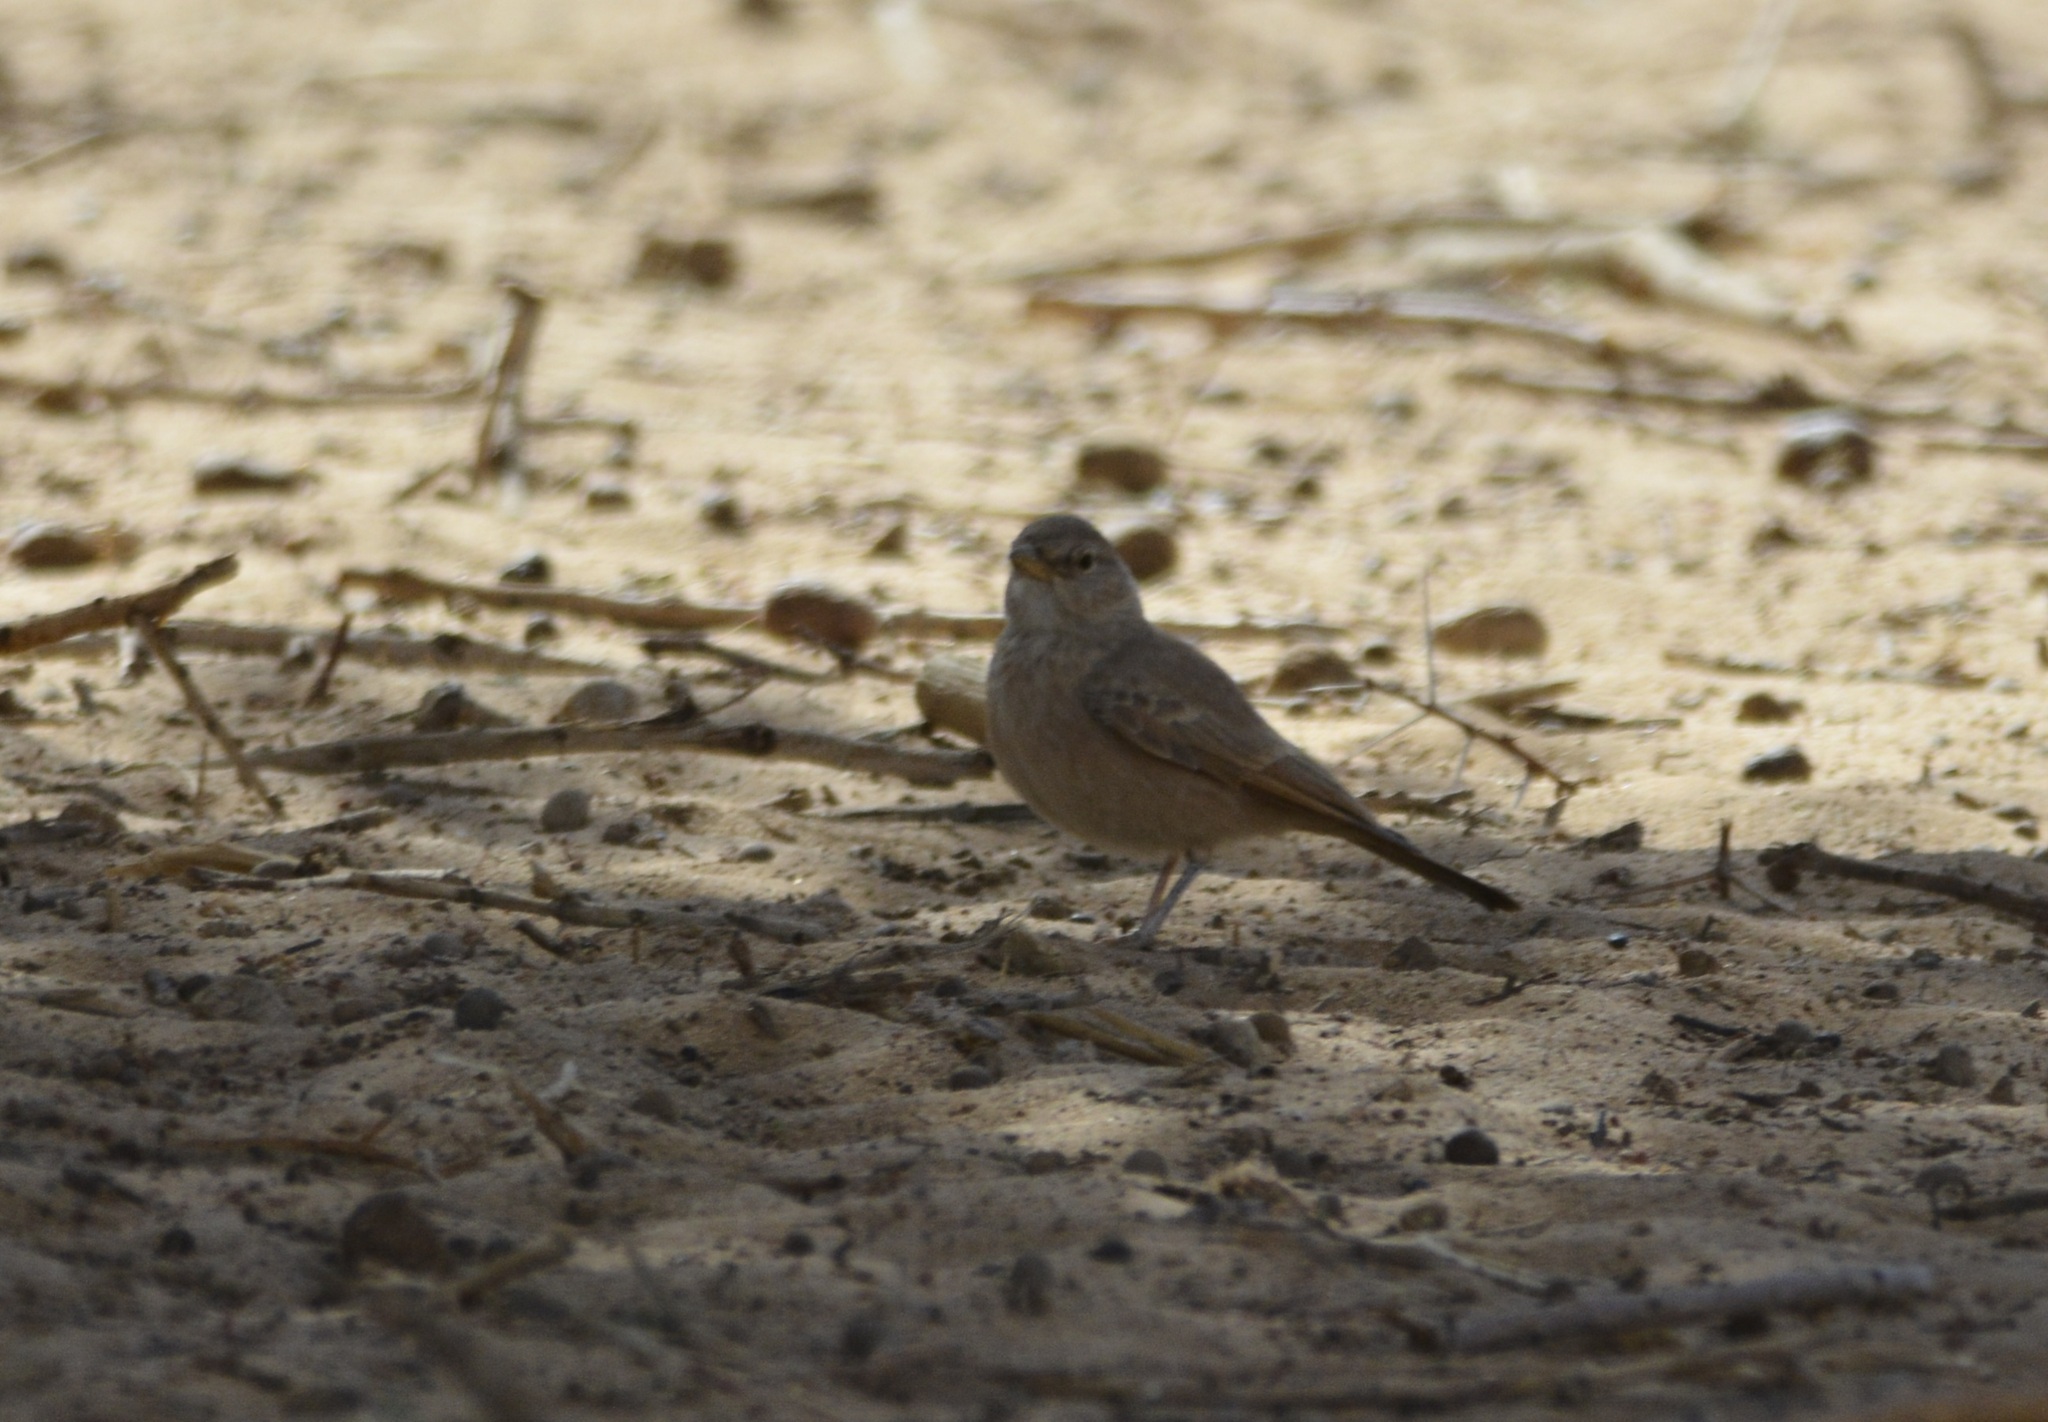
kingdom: Animalia
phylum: Chordata
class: Aves
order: Passeriformes
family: Alaudidae
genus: Ammomanes
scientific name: Ammomanes deserti
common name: Desert lark
